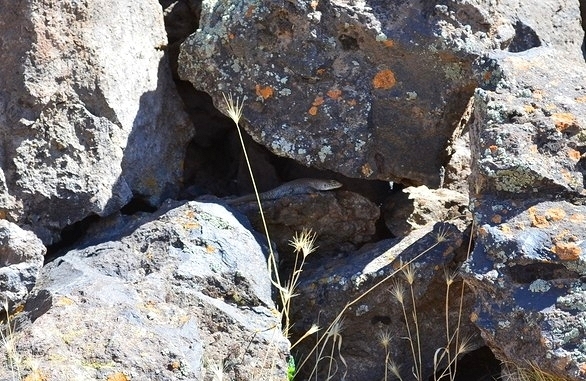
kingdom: Animalia
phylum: Chordata
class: Squamata
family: Liolaemidae
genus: Liolaemus
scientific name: Liolaemus austromendocinus
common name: Austromendocino tree iguana
